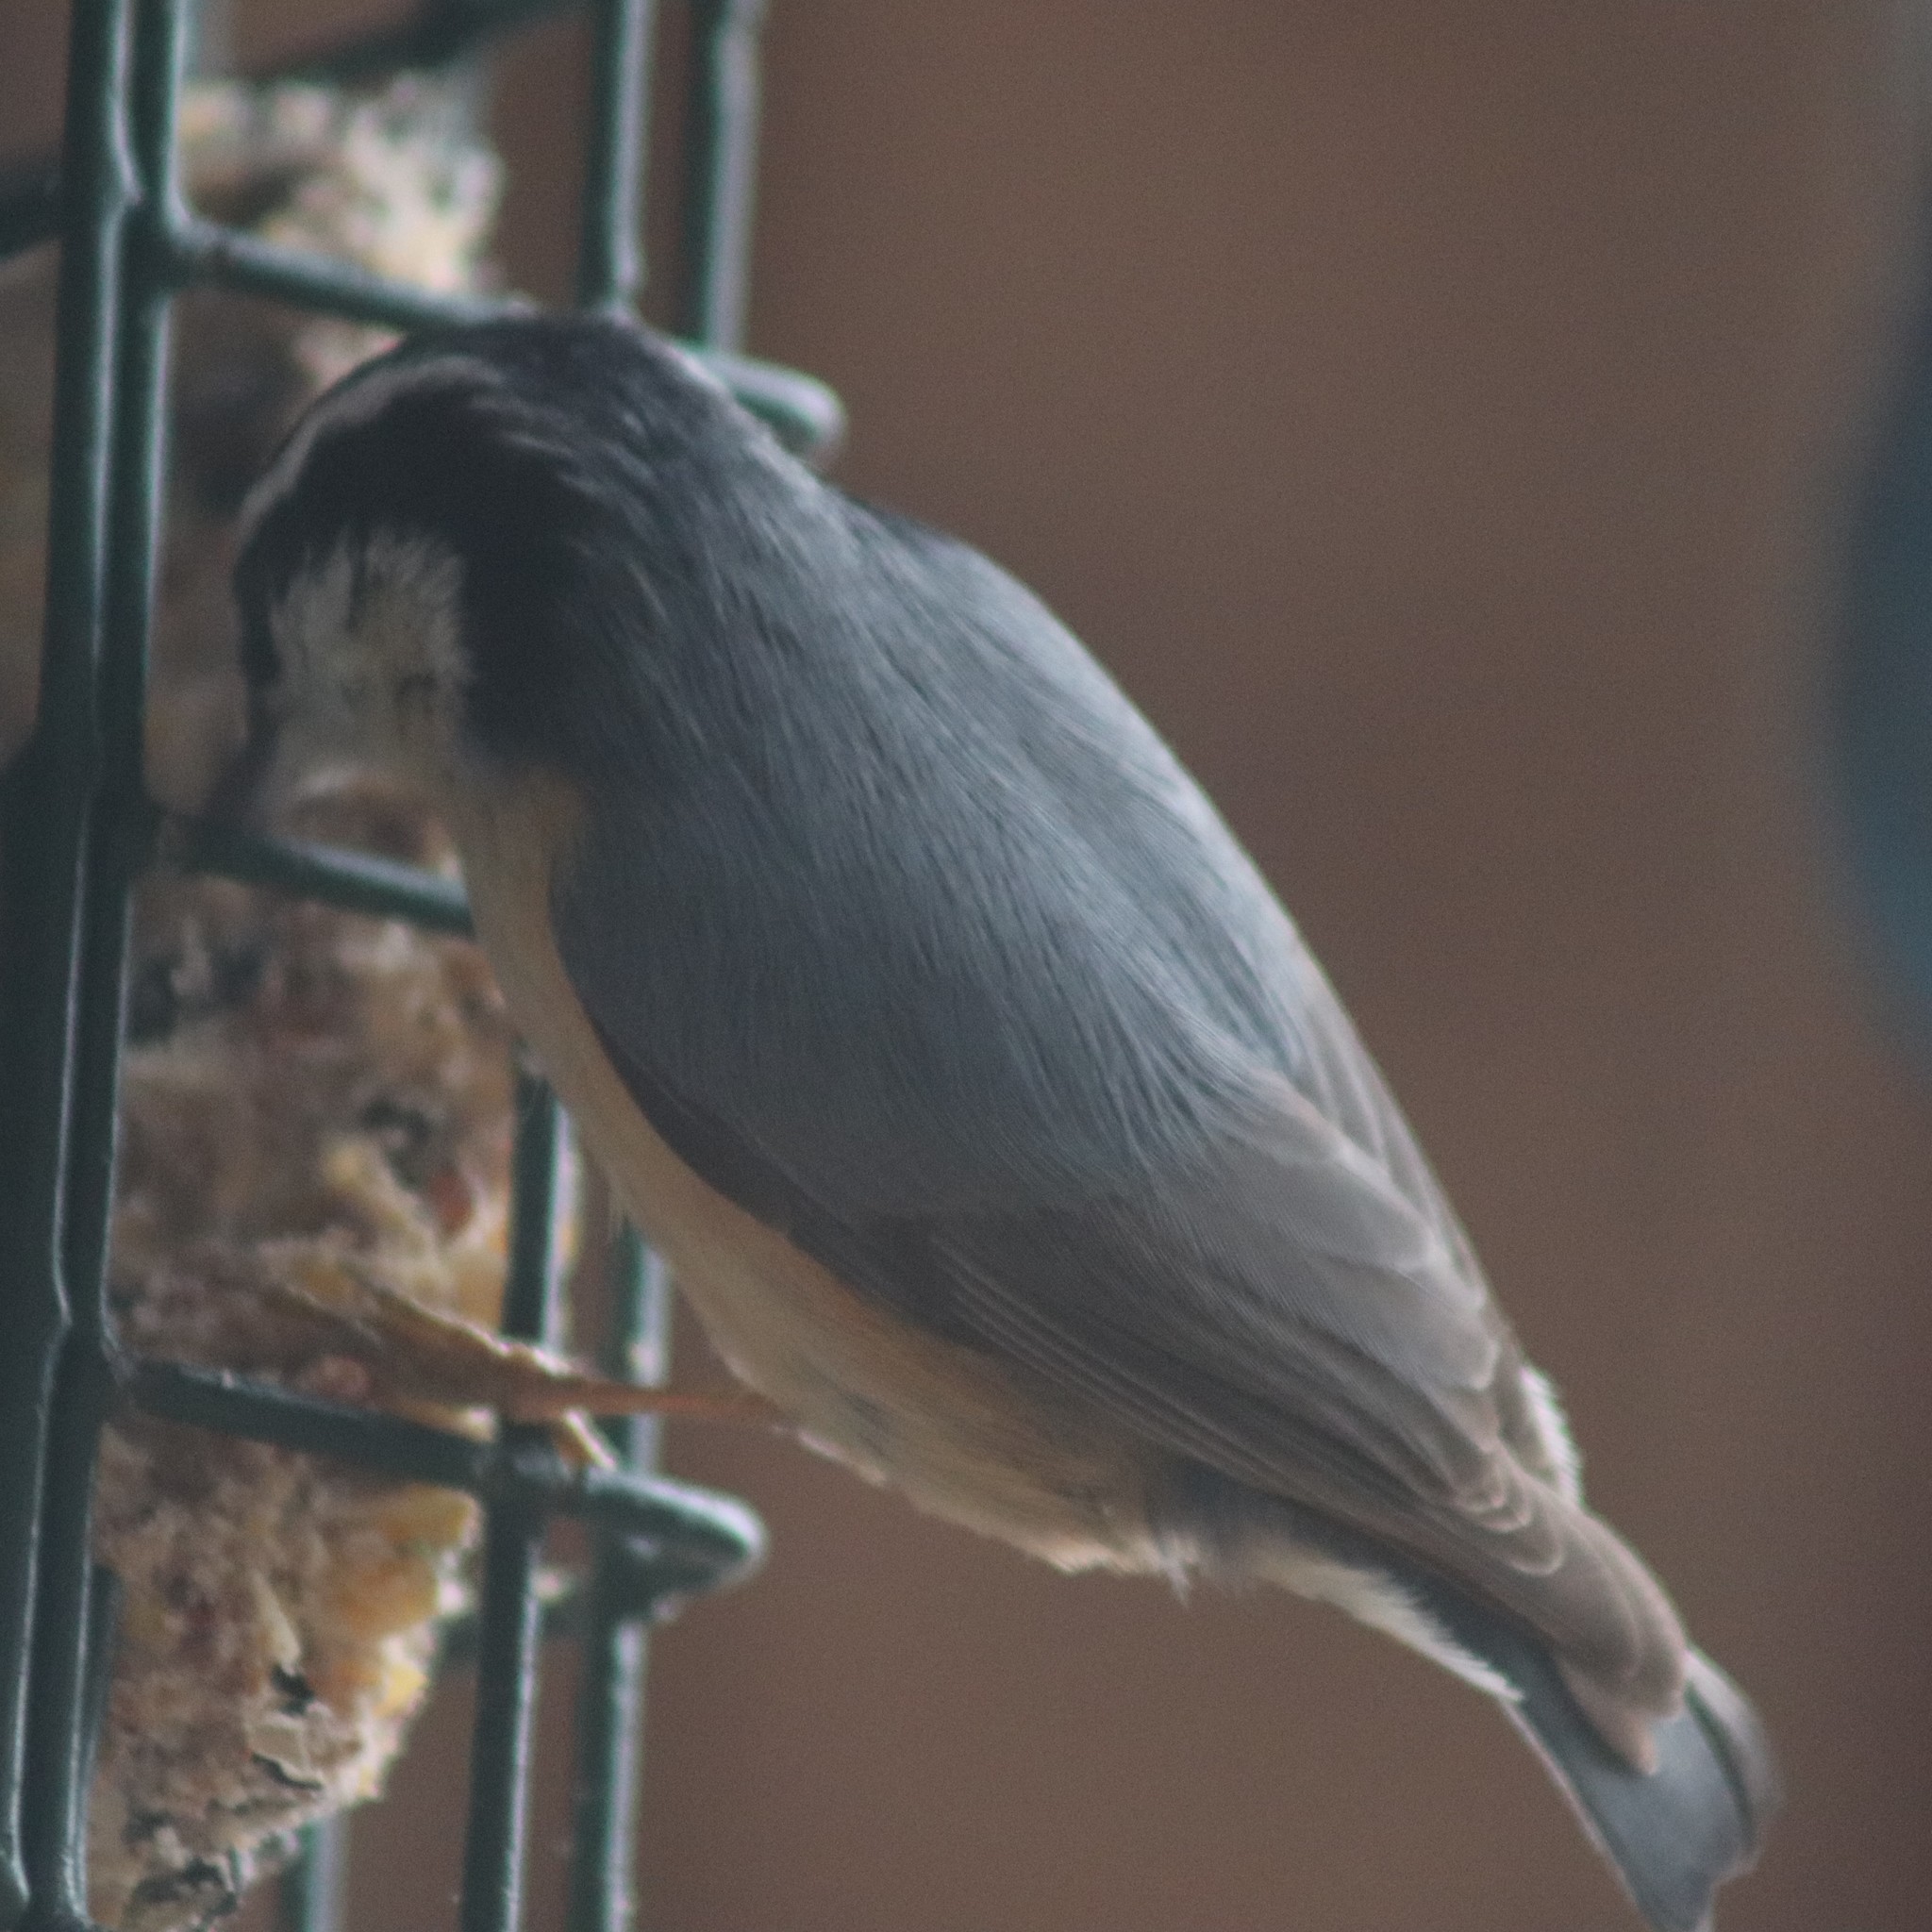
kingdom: Animalia
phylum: Chordata
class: Aves
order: Passeriformes
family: Sittidae
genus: Sitta
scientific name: Sitta canadensis
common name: Red-breasted nuthatch
